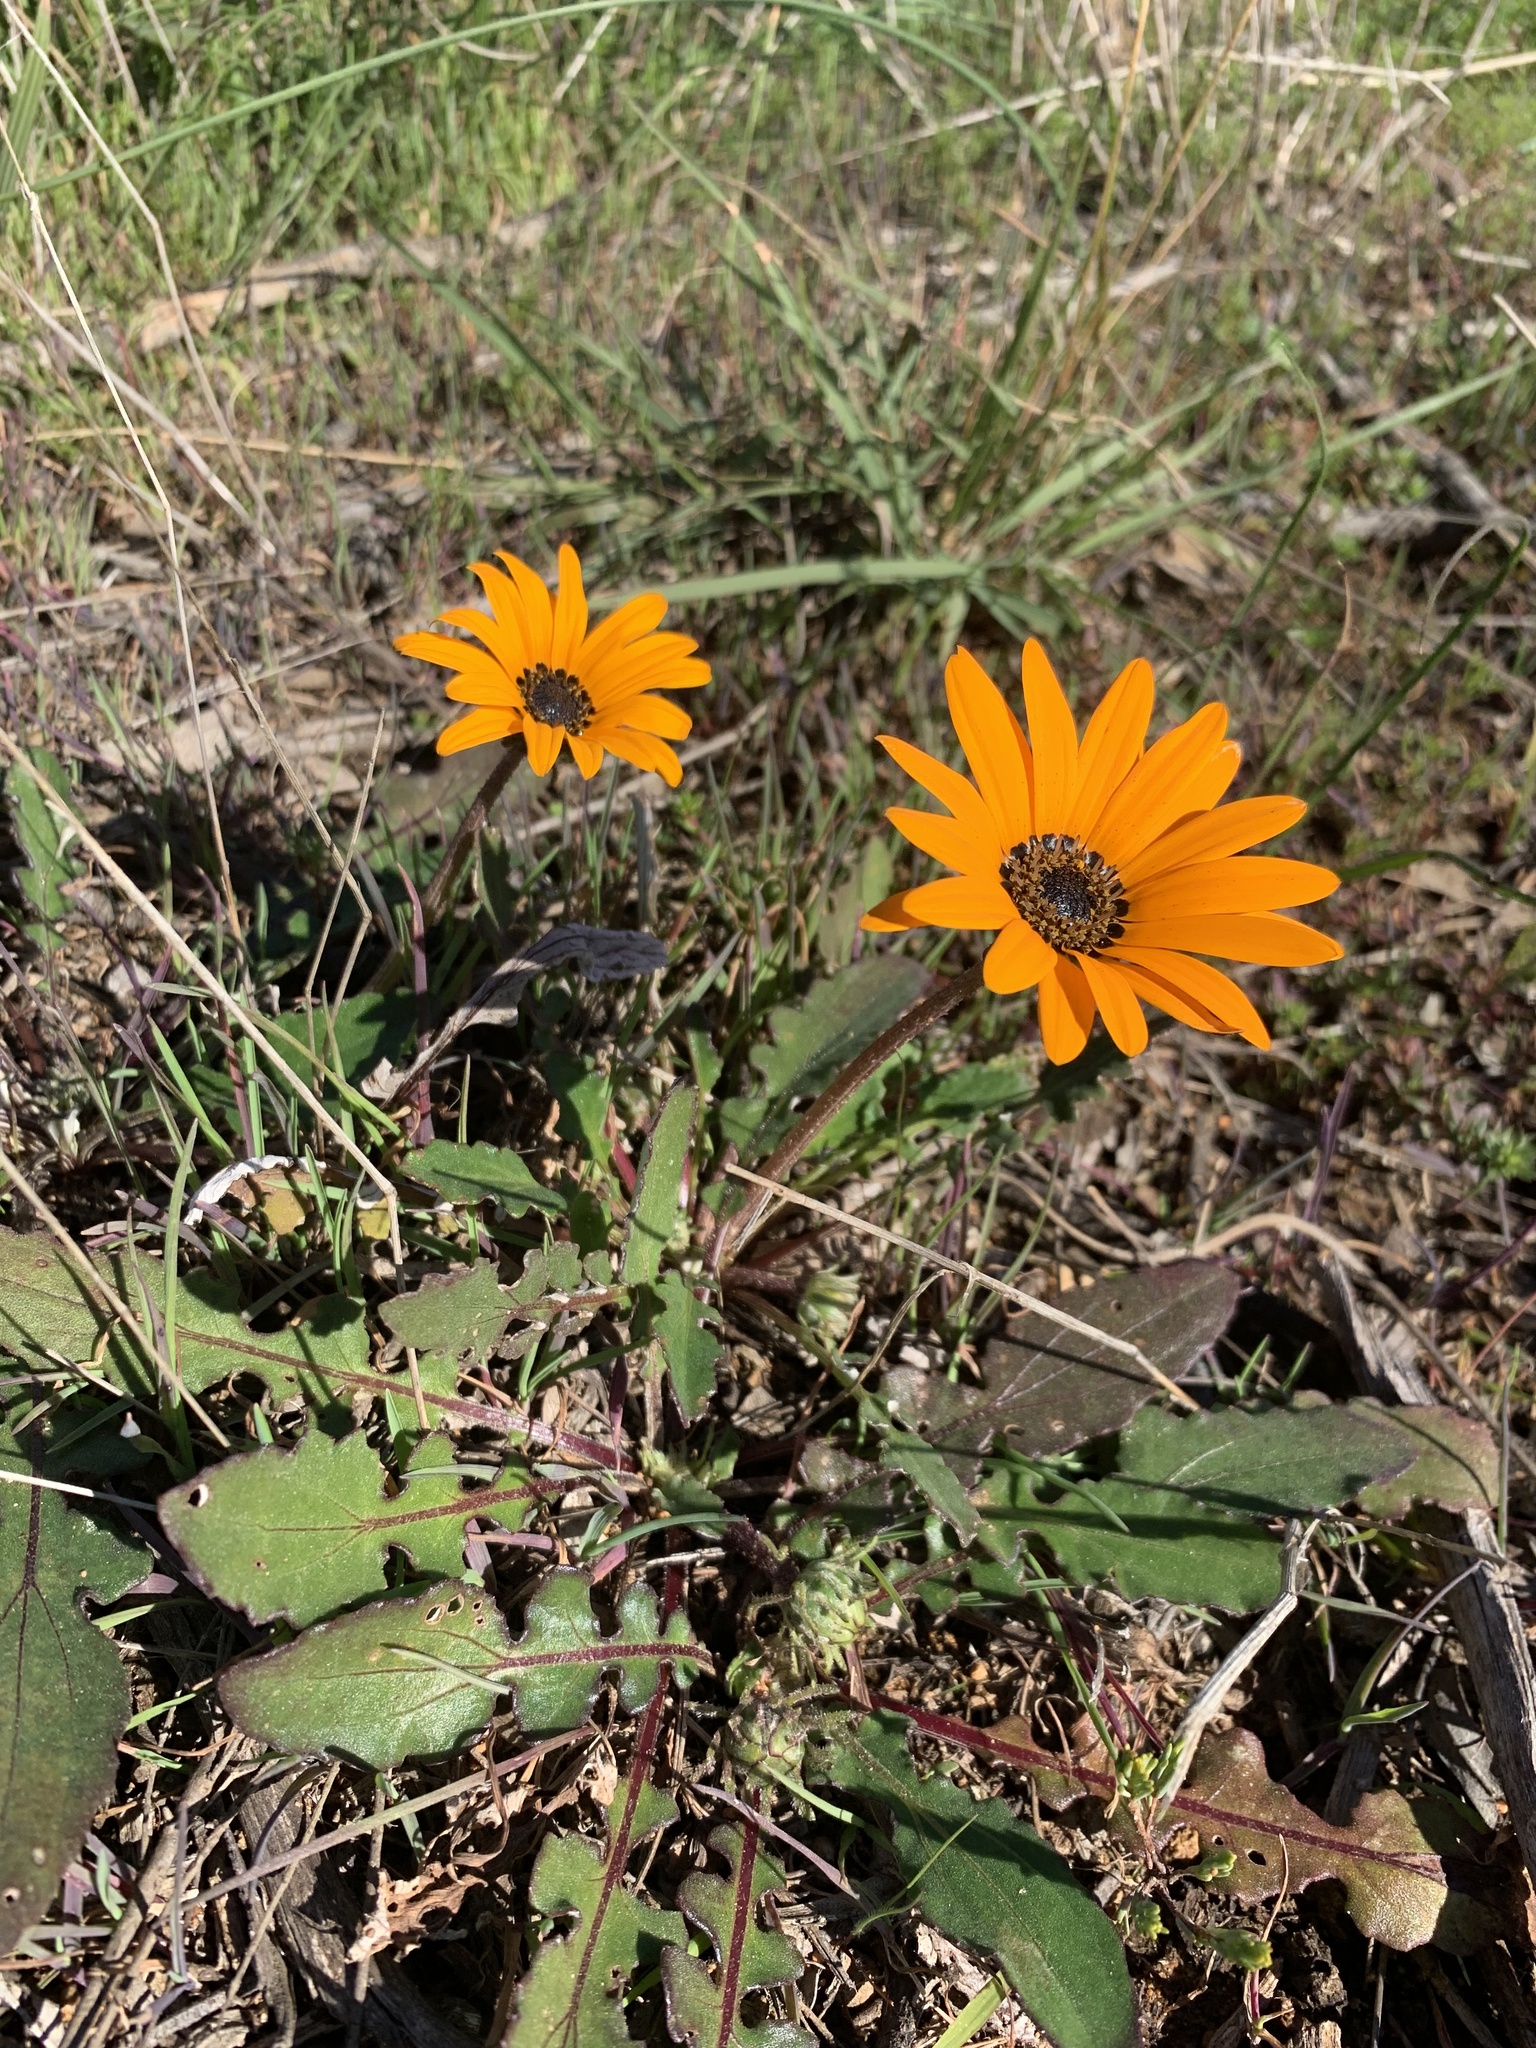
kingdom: Plantae
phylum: Tracheophyta
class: Magnoliopsida
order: Asterales
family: Asteraceae
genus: Arctotis
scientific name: Arctotis acaulis
